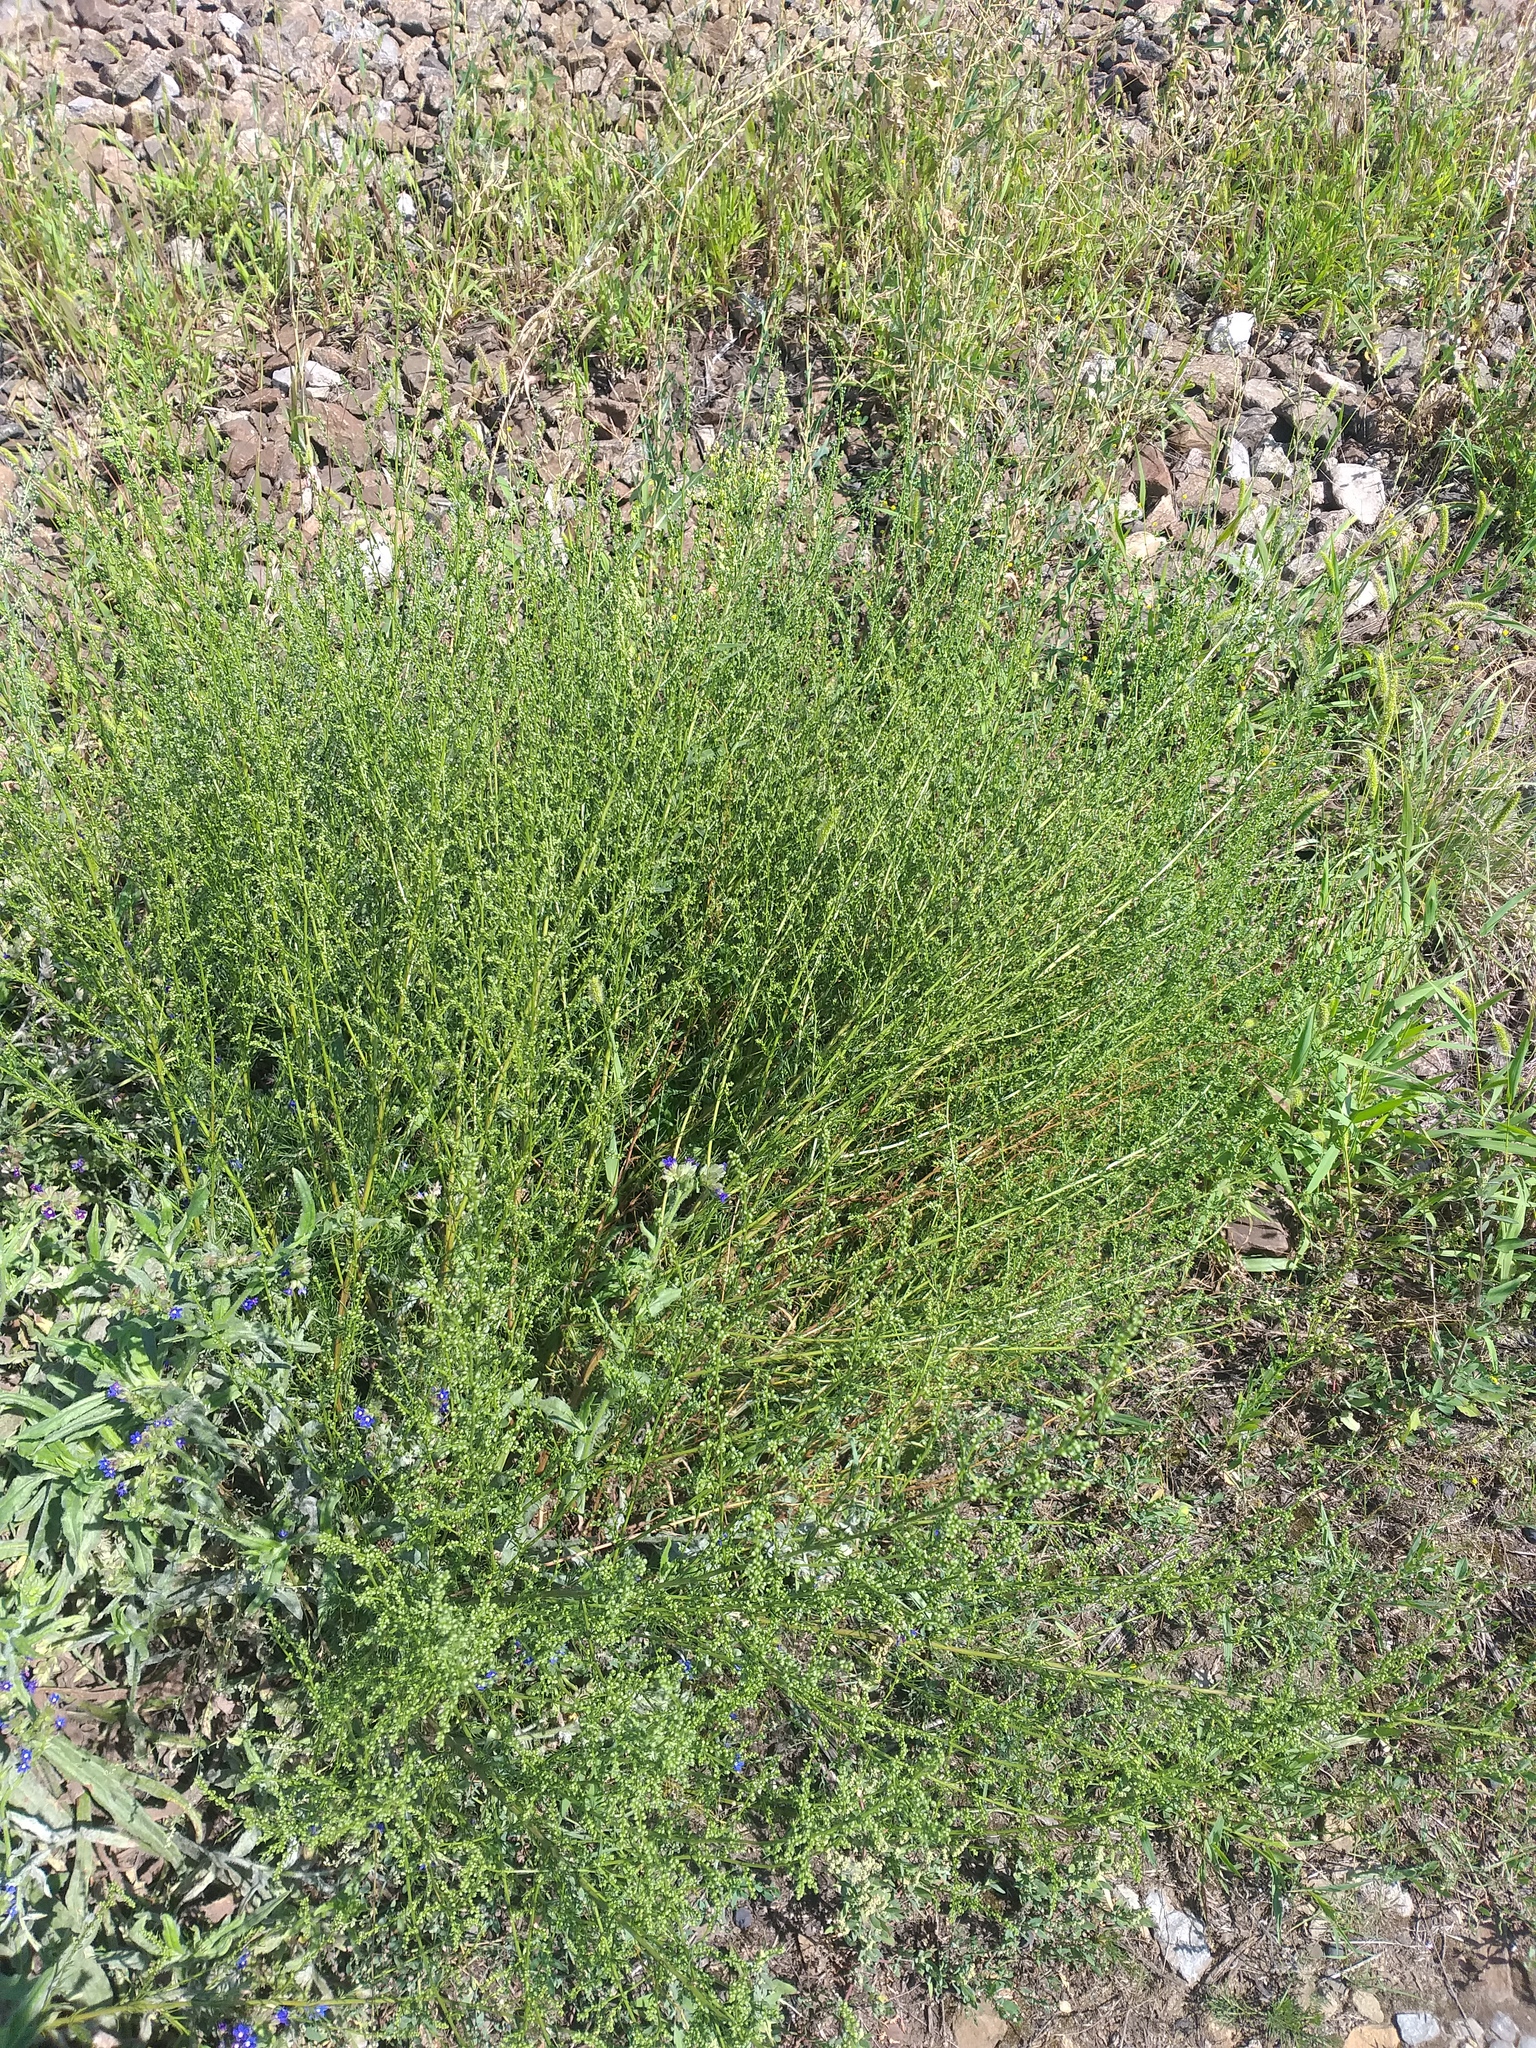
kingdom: Plantae
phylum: Tracheophyta
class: Magnoliopsida
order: Asterales
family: Asteraceae
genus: Artemisia
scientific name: Artemisia campestris
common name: Field wormwood
